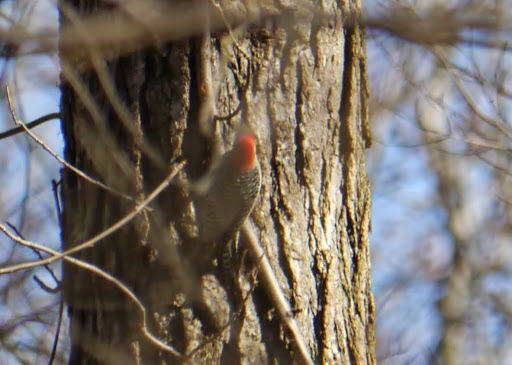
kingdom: Animalia
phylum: Chordata
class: Aves
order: Piciformes
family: Picidae
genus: Melanerpes
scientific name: Melanerpes carolinus
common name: Red-bellied woodpecker
